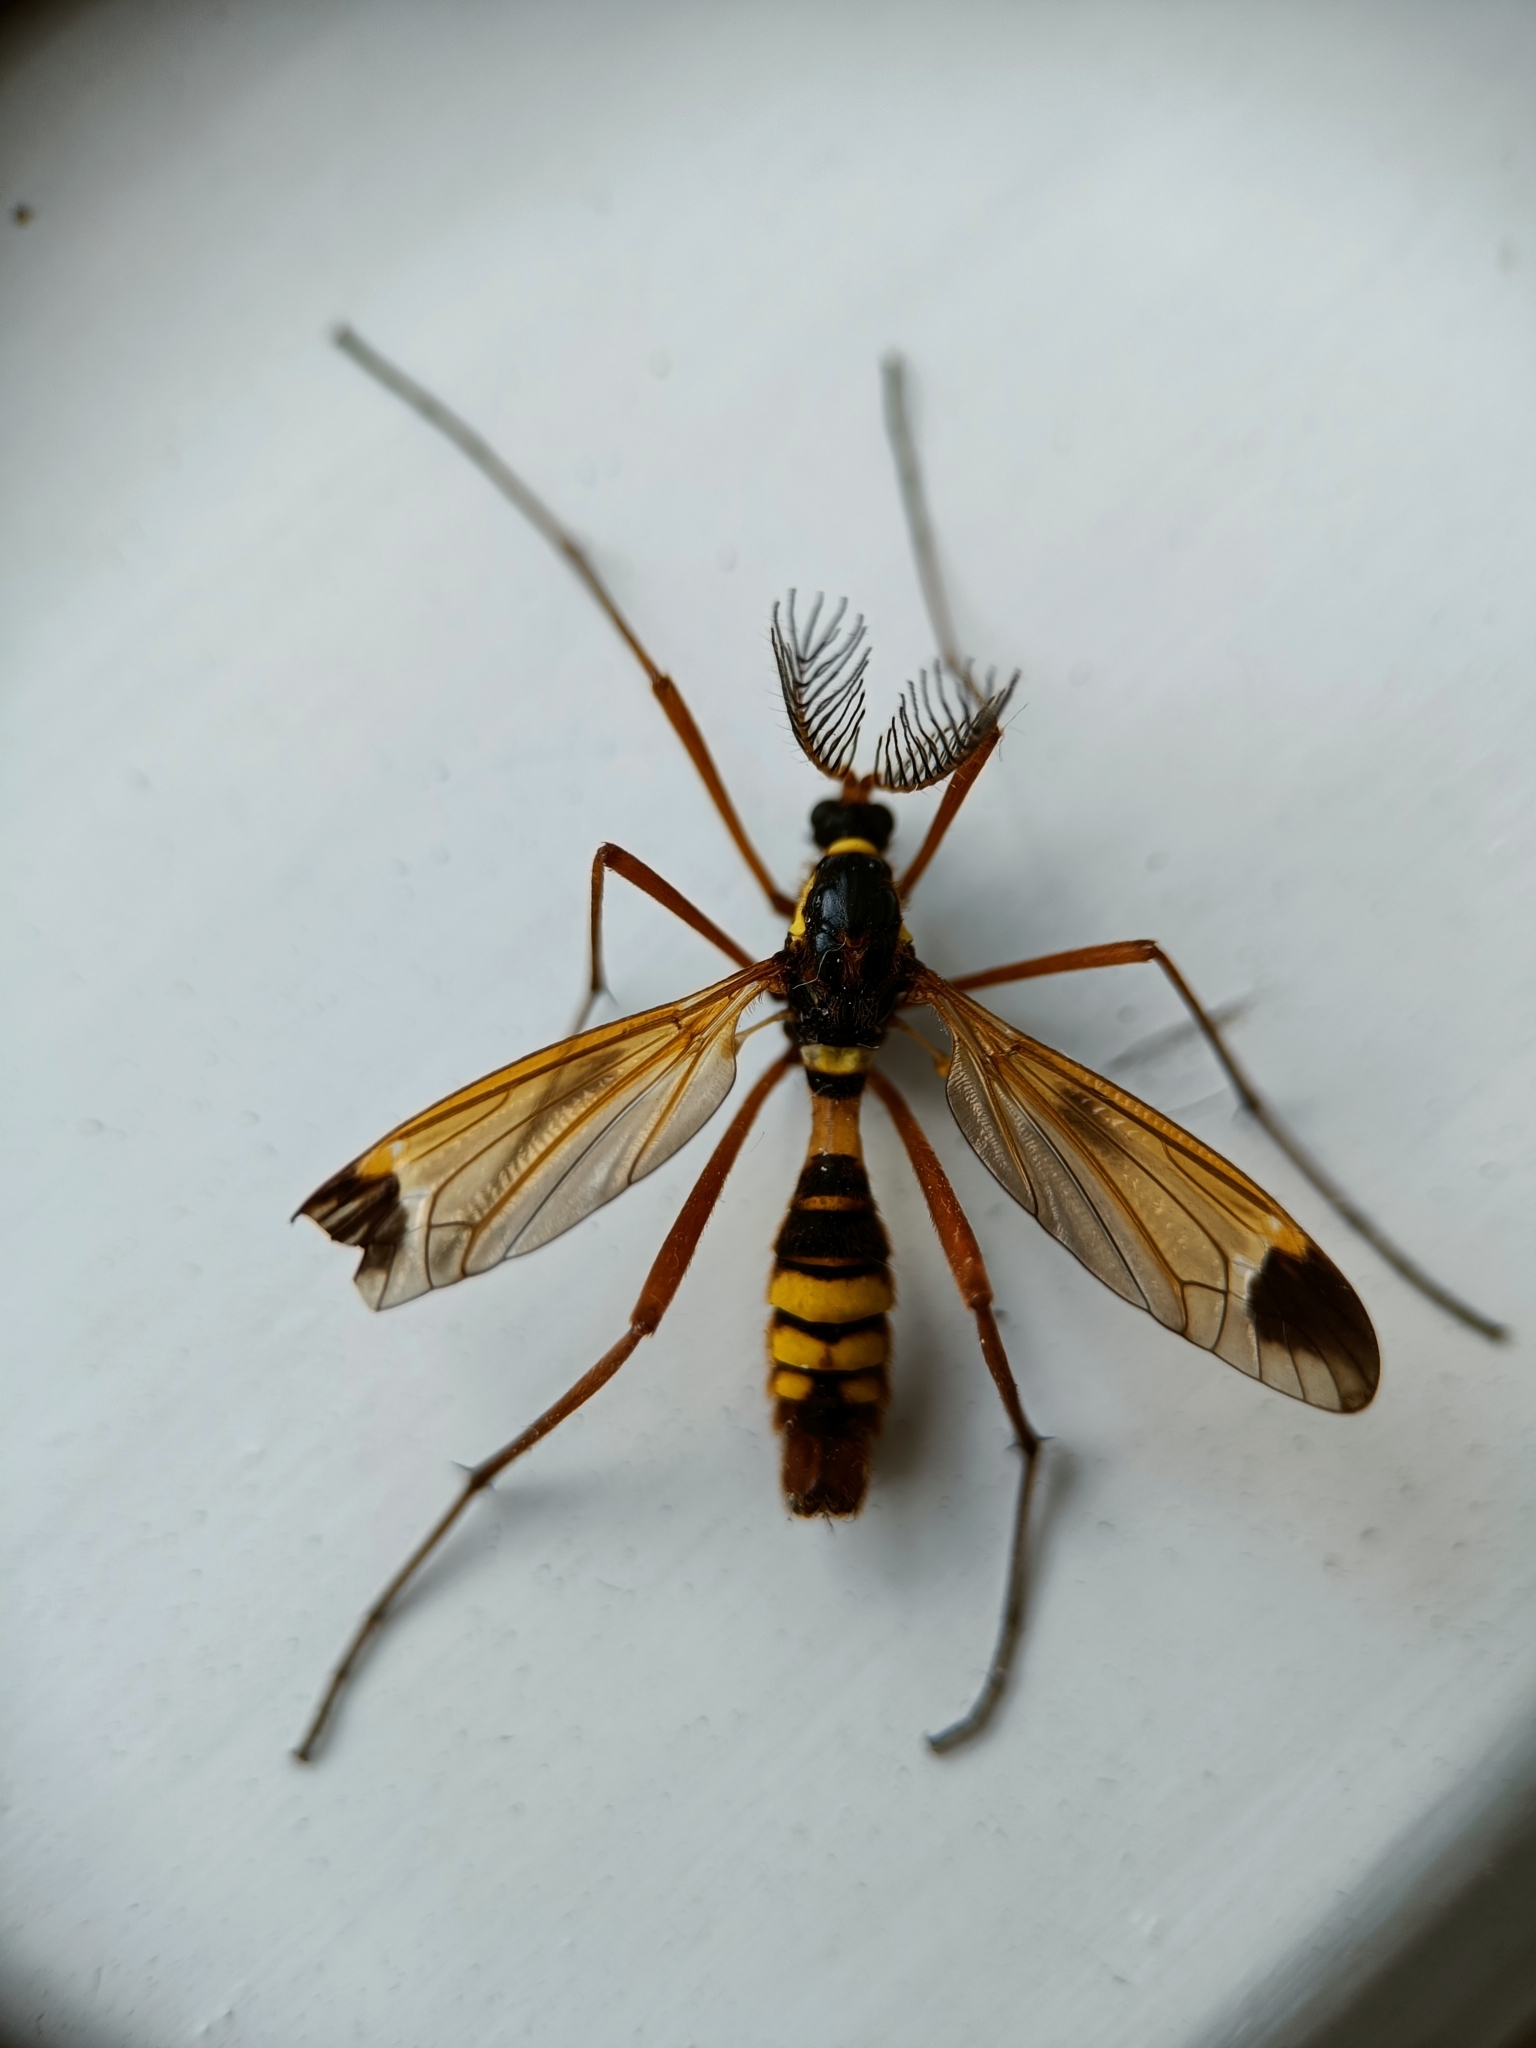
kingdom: Animalia
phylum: Arthropoda
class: Insecta
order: Diptera
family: Tipulidae
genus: Ctenophora
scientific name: Ctenophora ornata
